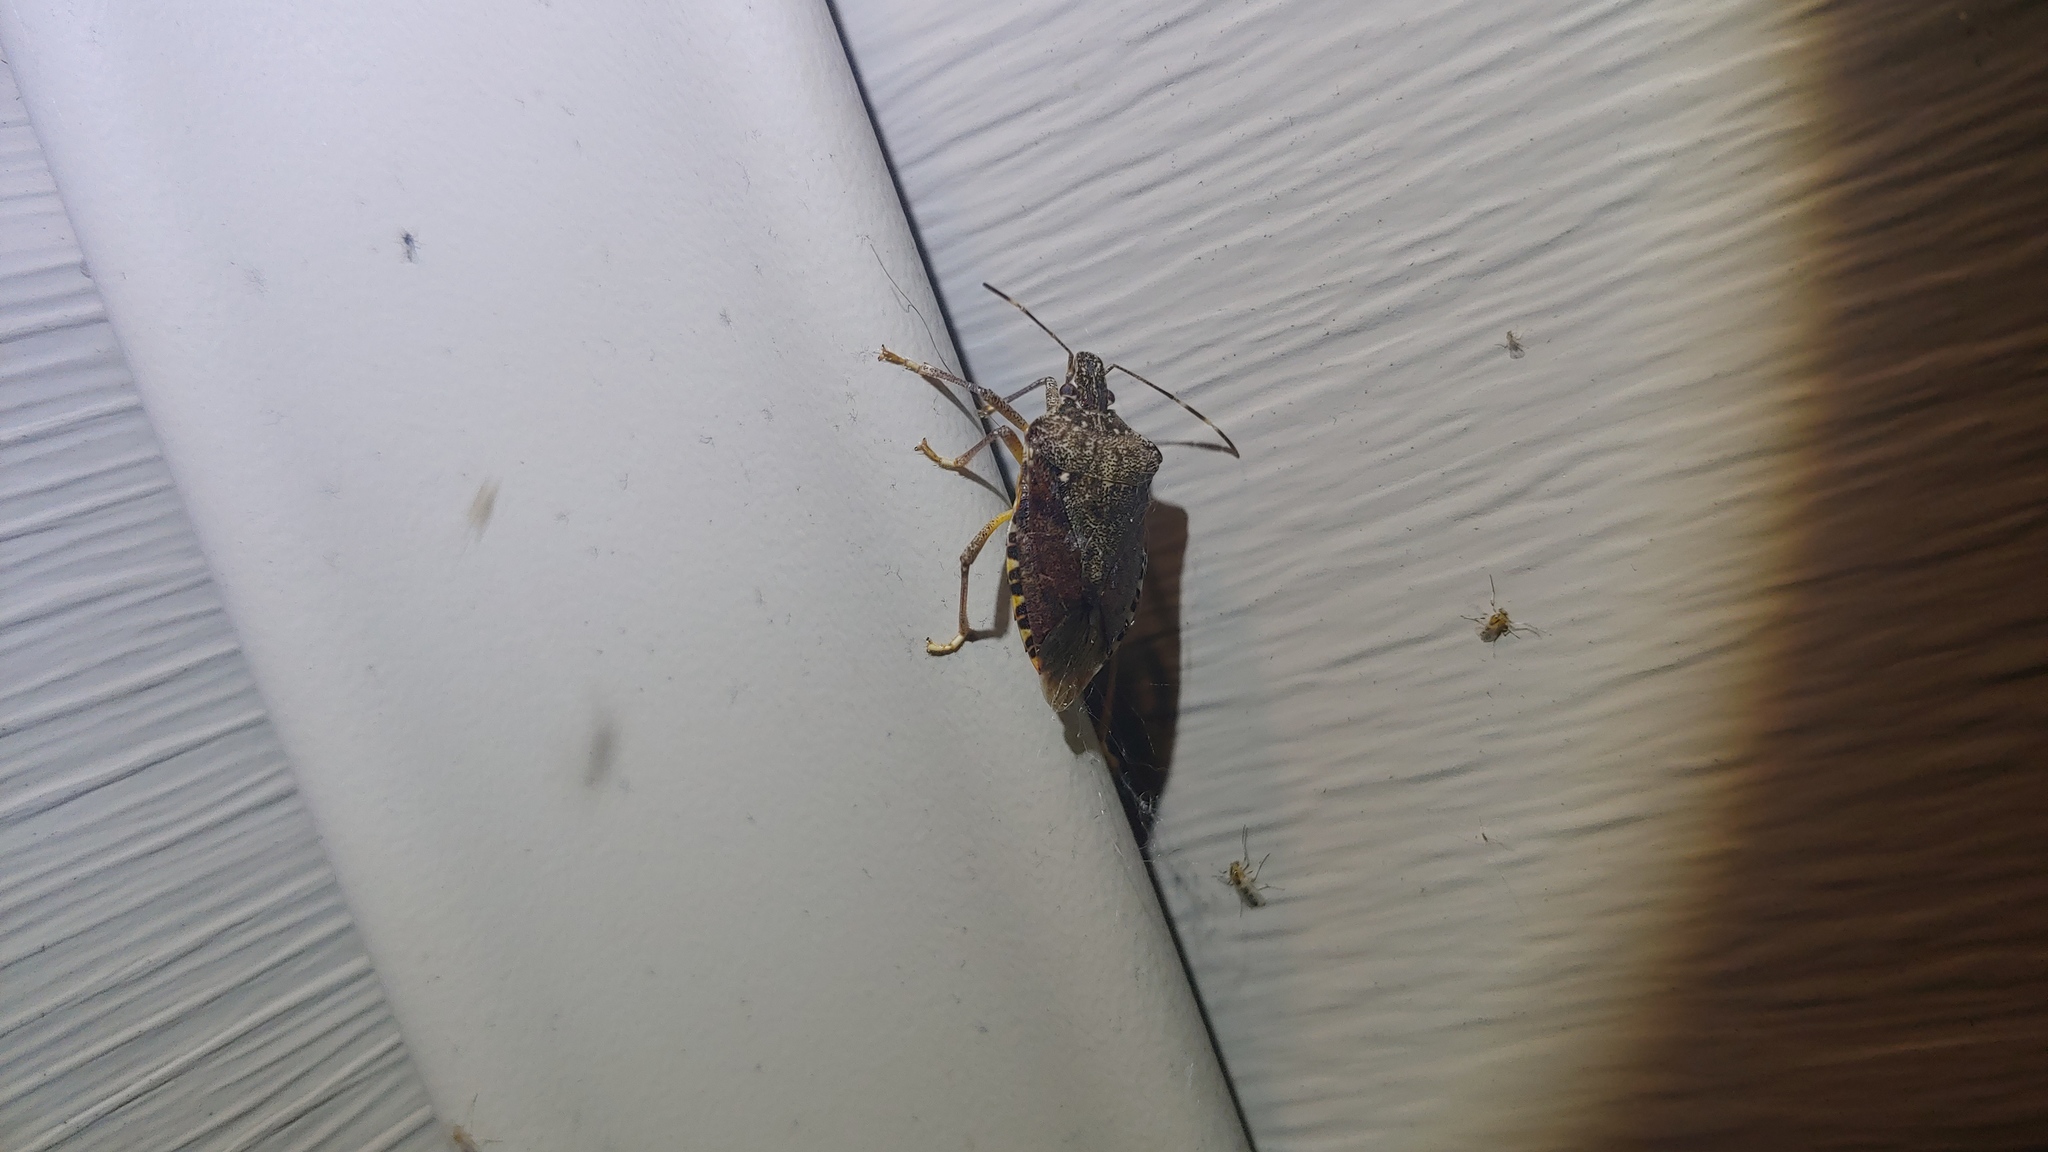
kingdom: Animalia
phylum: Arthropoda
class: Insecta
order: Hemiptera
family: Pentatomidae
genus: Halyomorpha
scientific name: Halyomorpha halys
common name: Brown marmorated stink bug
